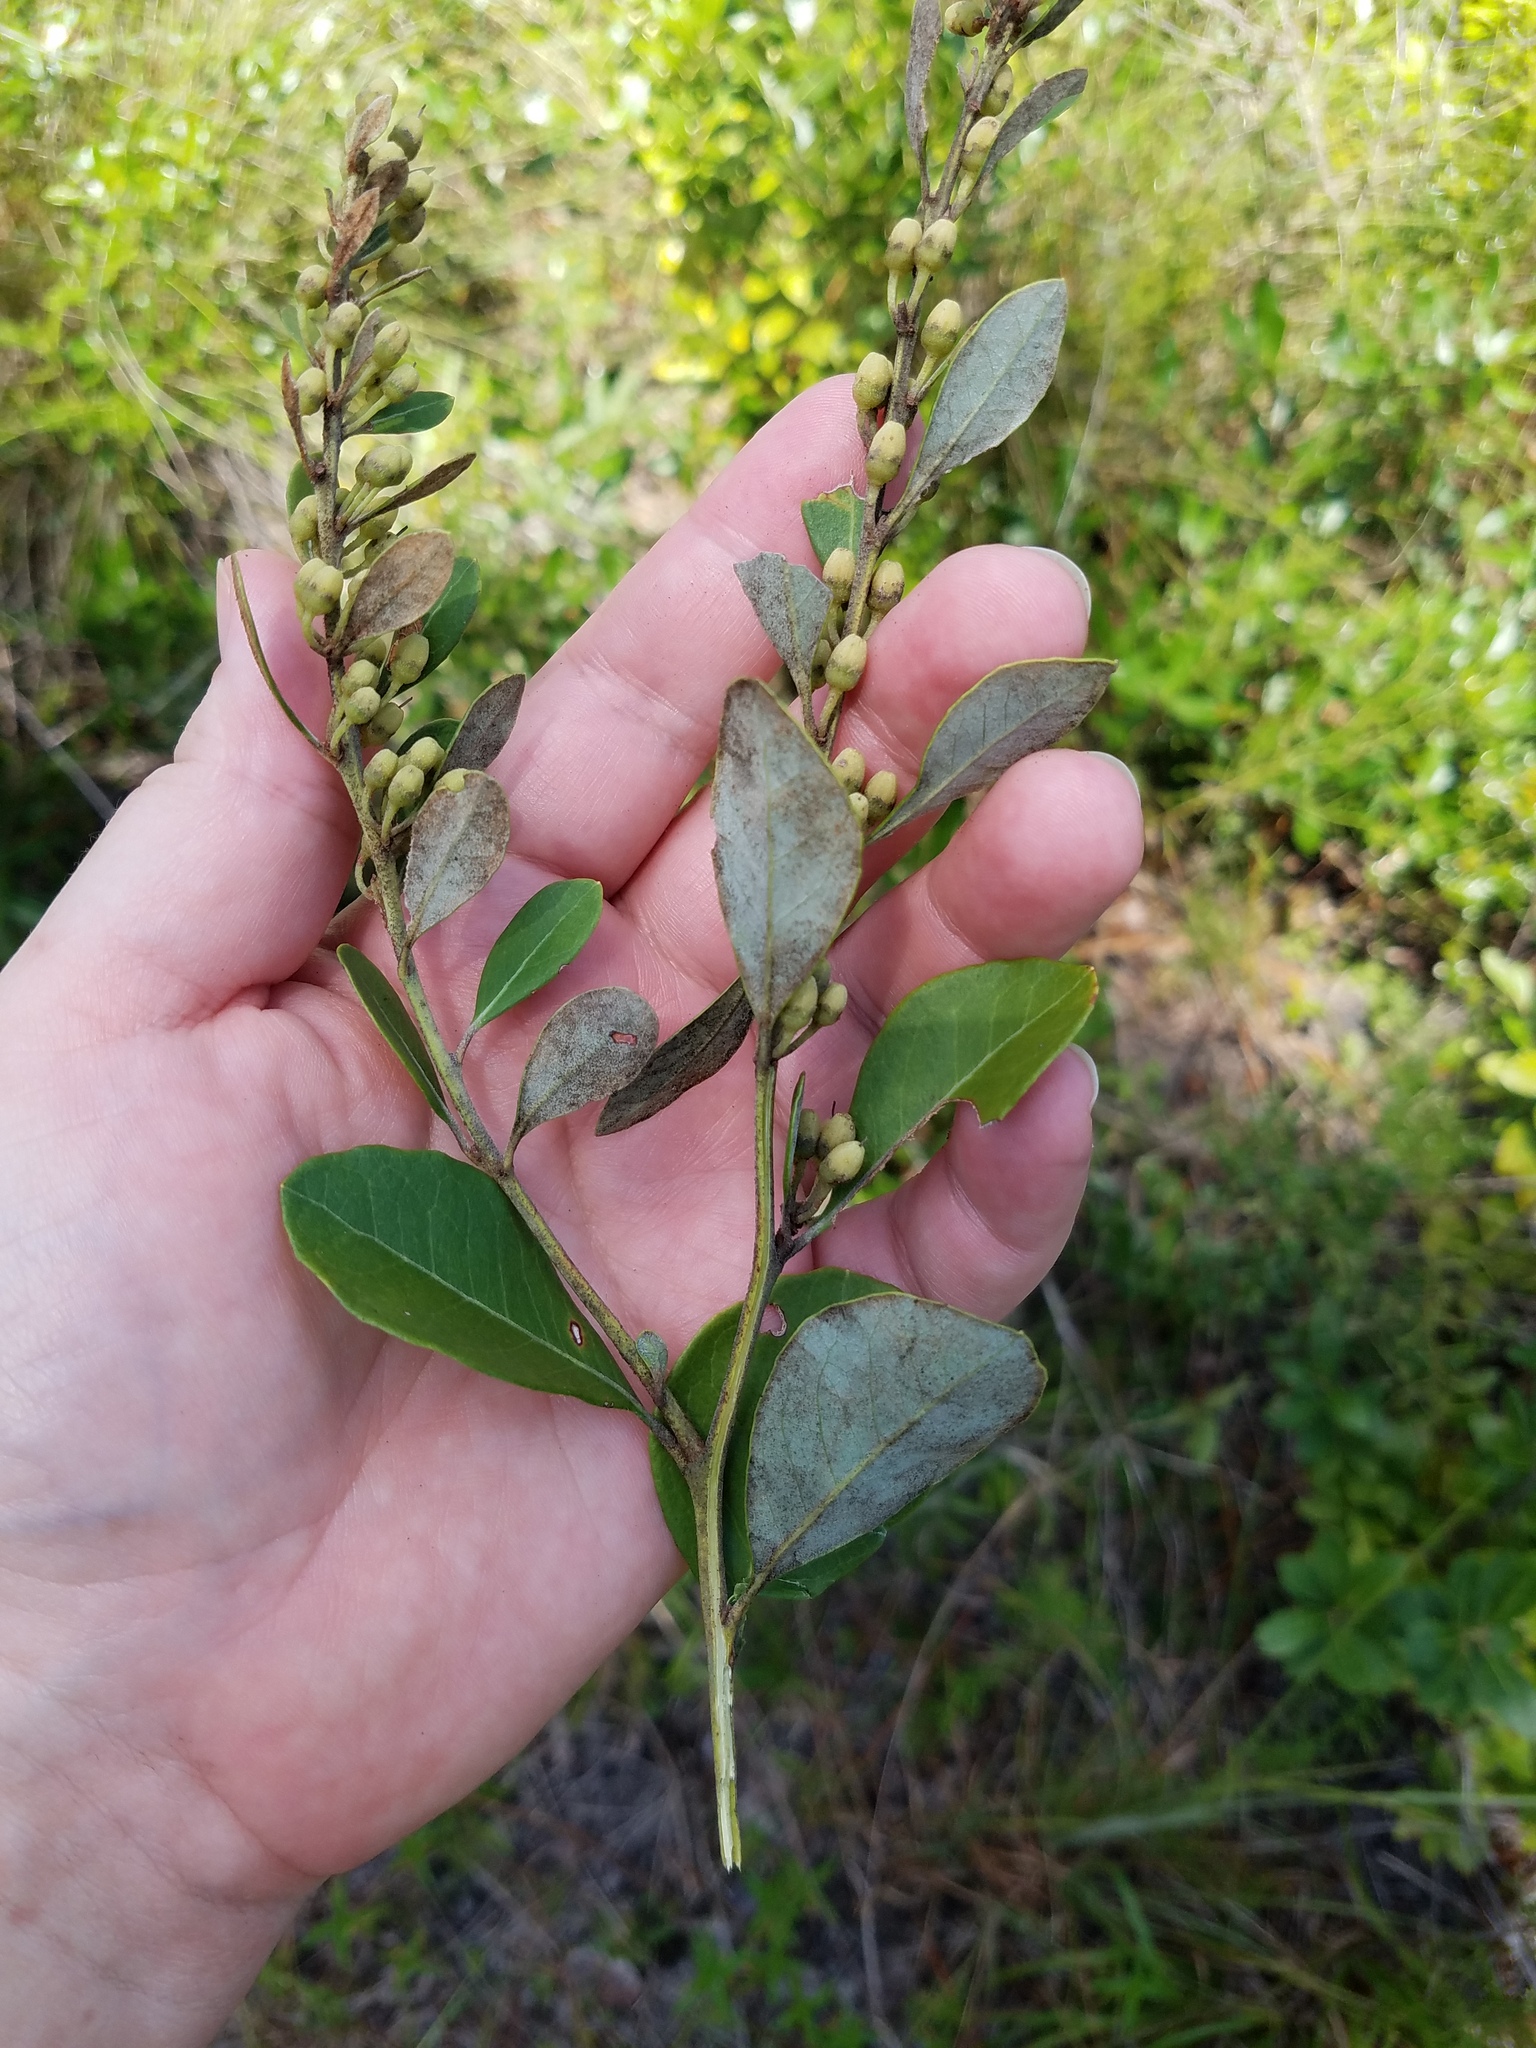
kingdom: Plantae
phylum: Tracheophyta
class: Magnoliopsida
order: Ericales
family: Ericaceae
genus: Lyonia
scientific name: Lyonia fruticosa
